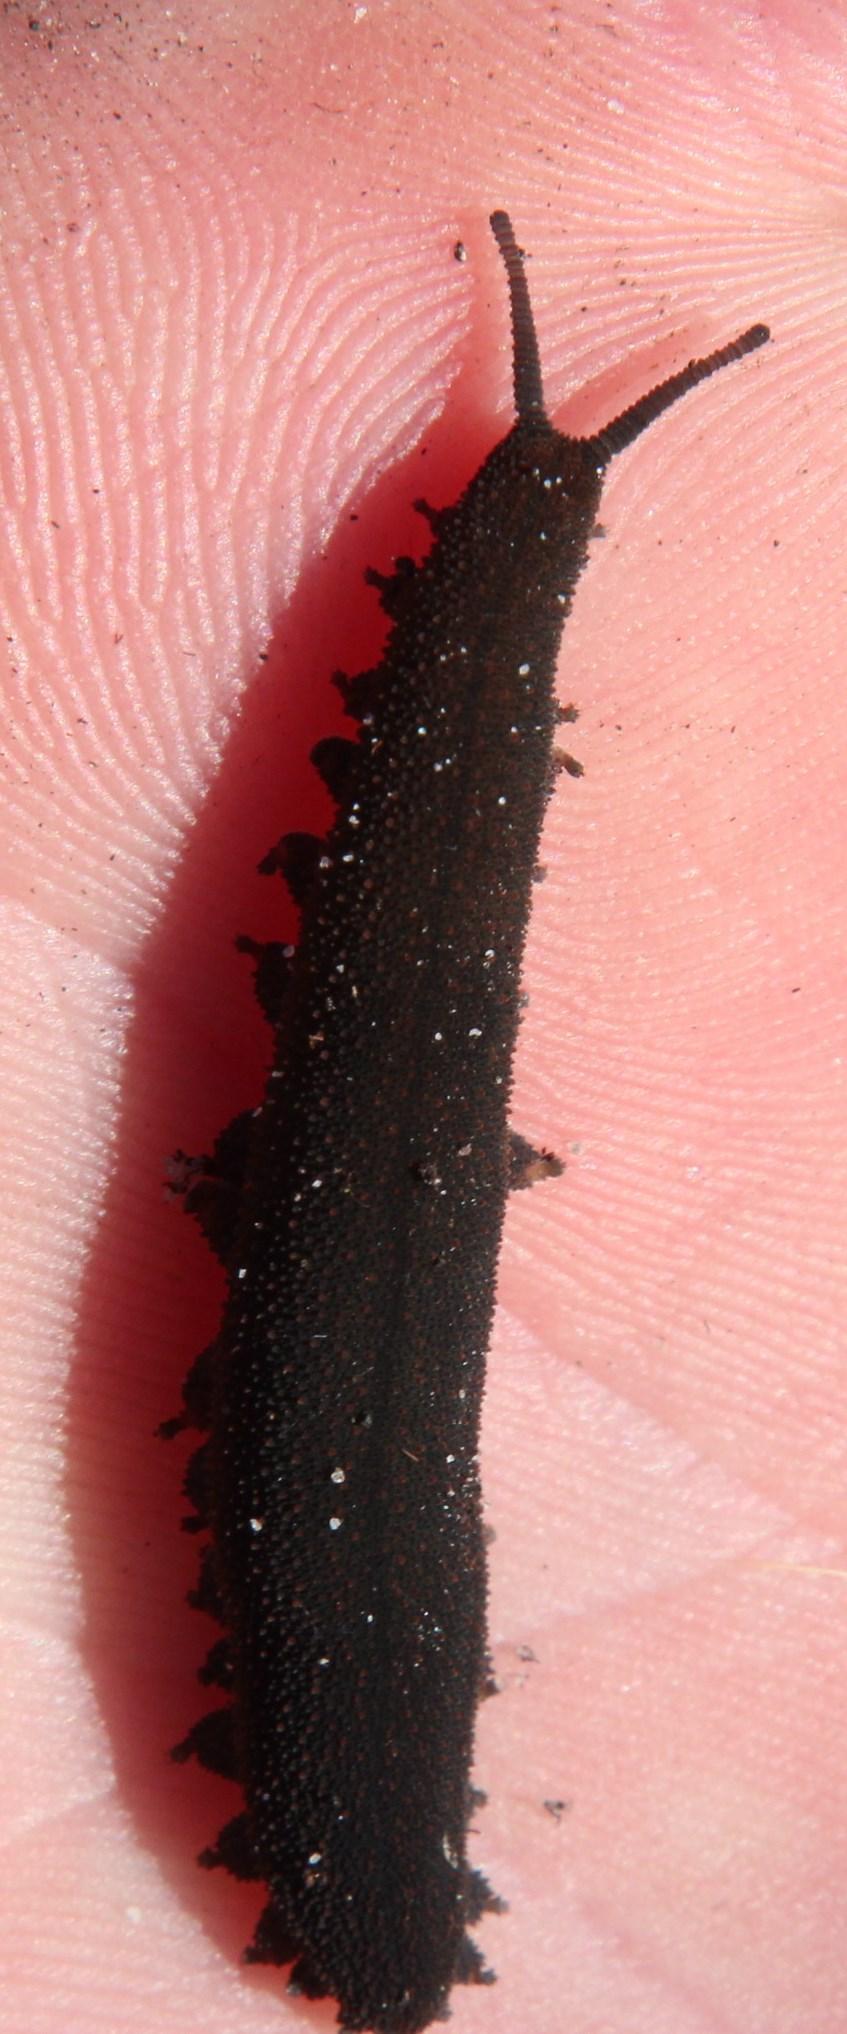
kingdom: Animalia
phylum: Onychophora
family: Peripatopsidae
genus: Peripatopsis
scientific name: Peripatopsis capensis
